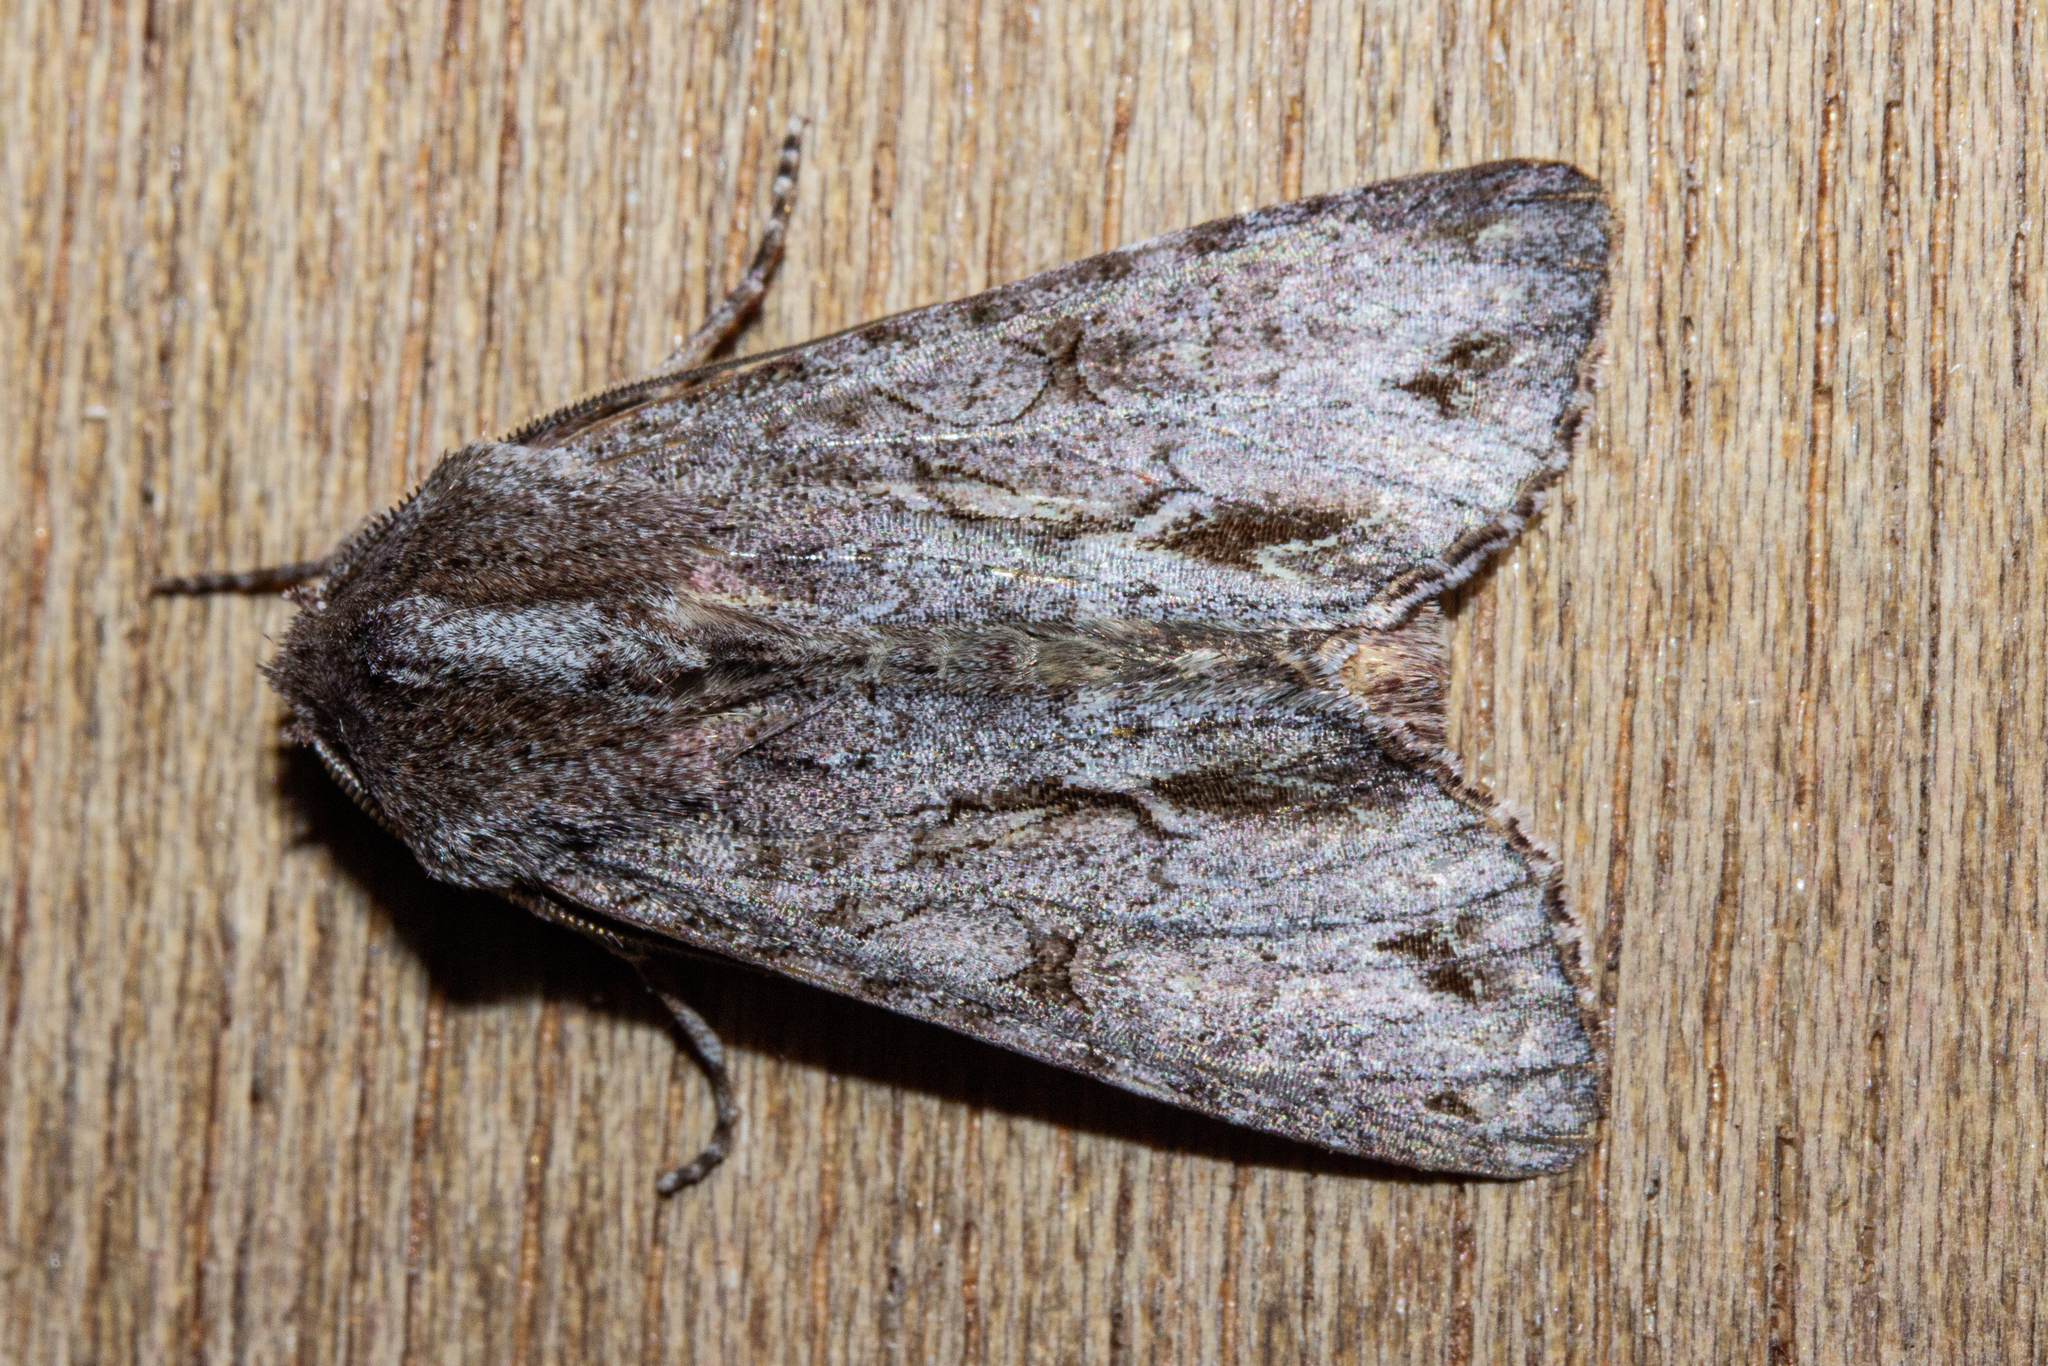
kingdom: Animalia
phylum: Arthropoda
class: Insecta
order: Lepidoptera
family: Noctuidae
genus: Ichneutica
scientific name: Ichneutica
